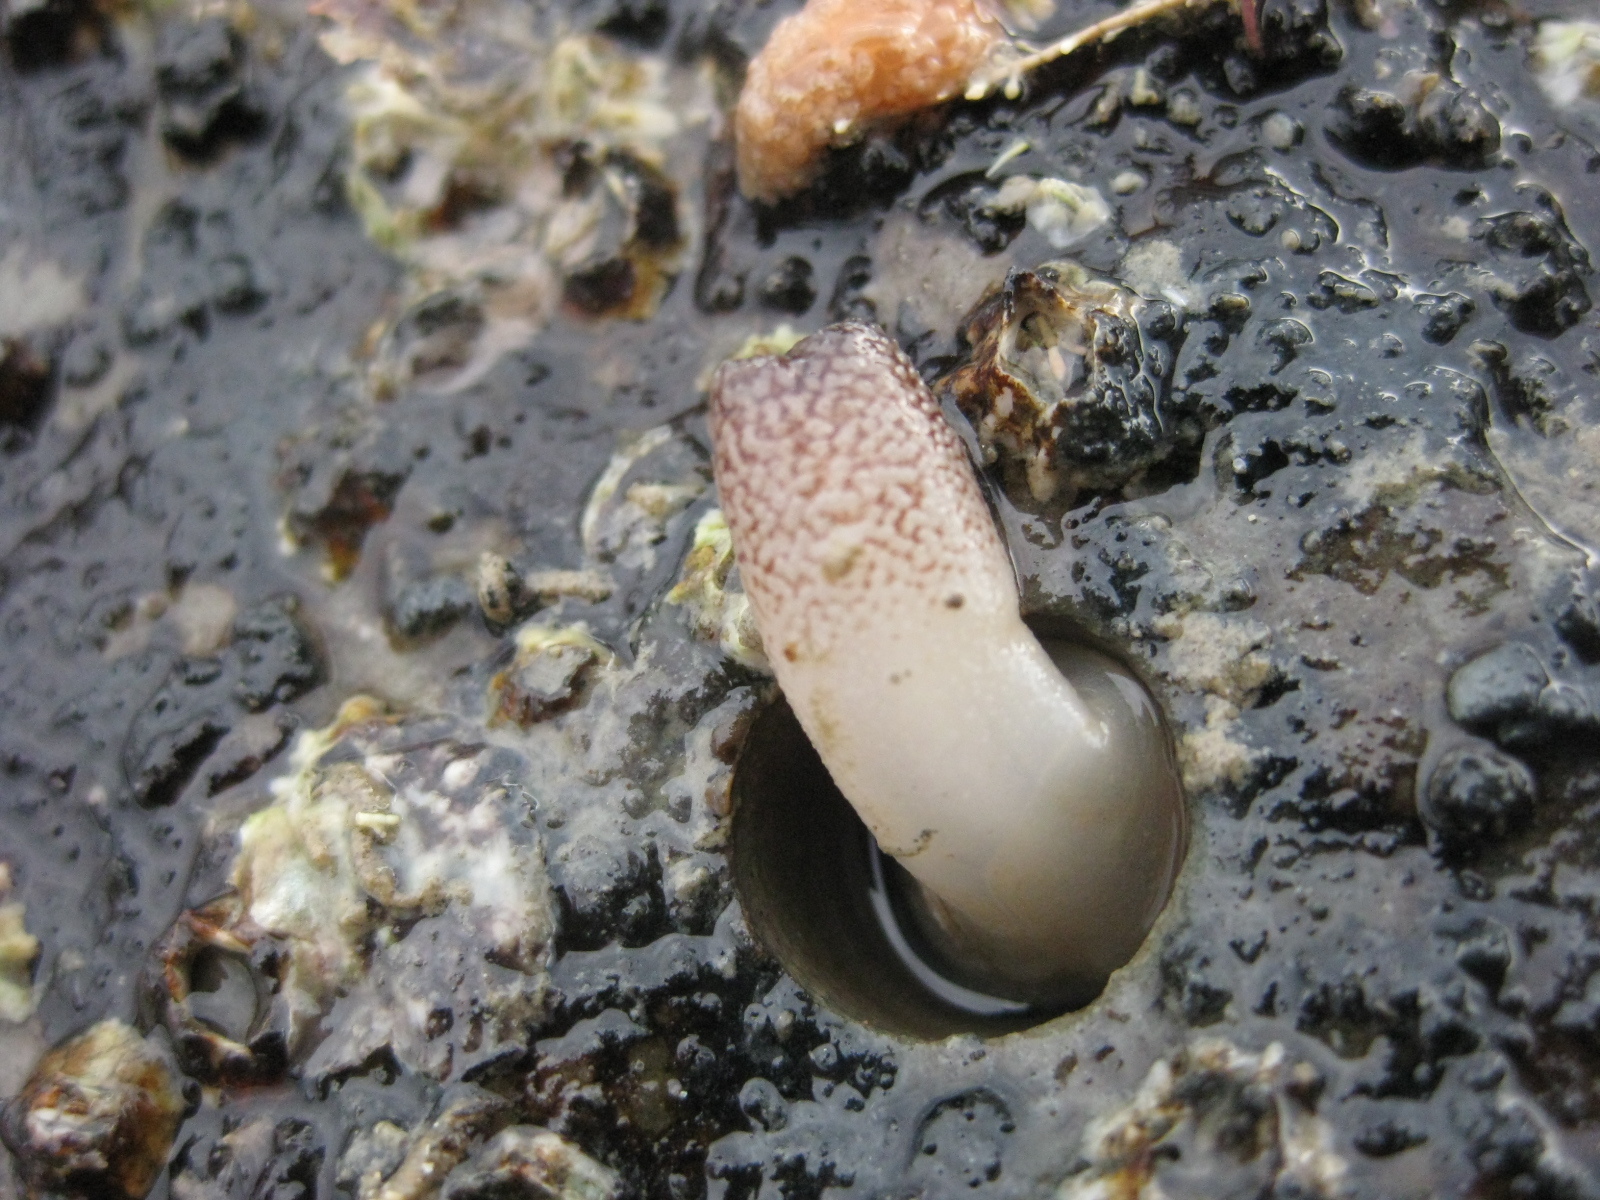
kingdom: Animalia
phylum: Mollusca
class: Bivalvia
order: Myida
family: Pholadidae
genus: Barnea
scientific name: Barnea similis
